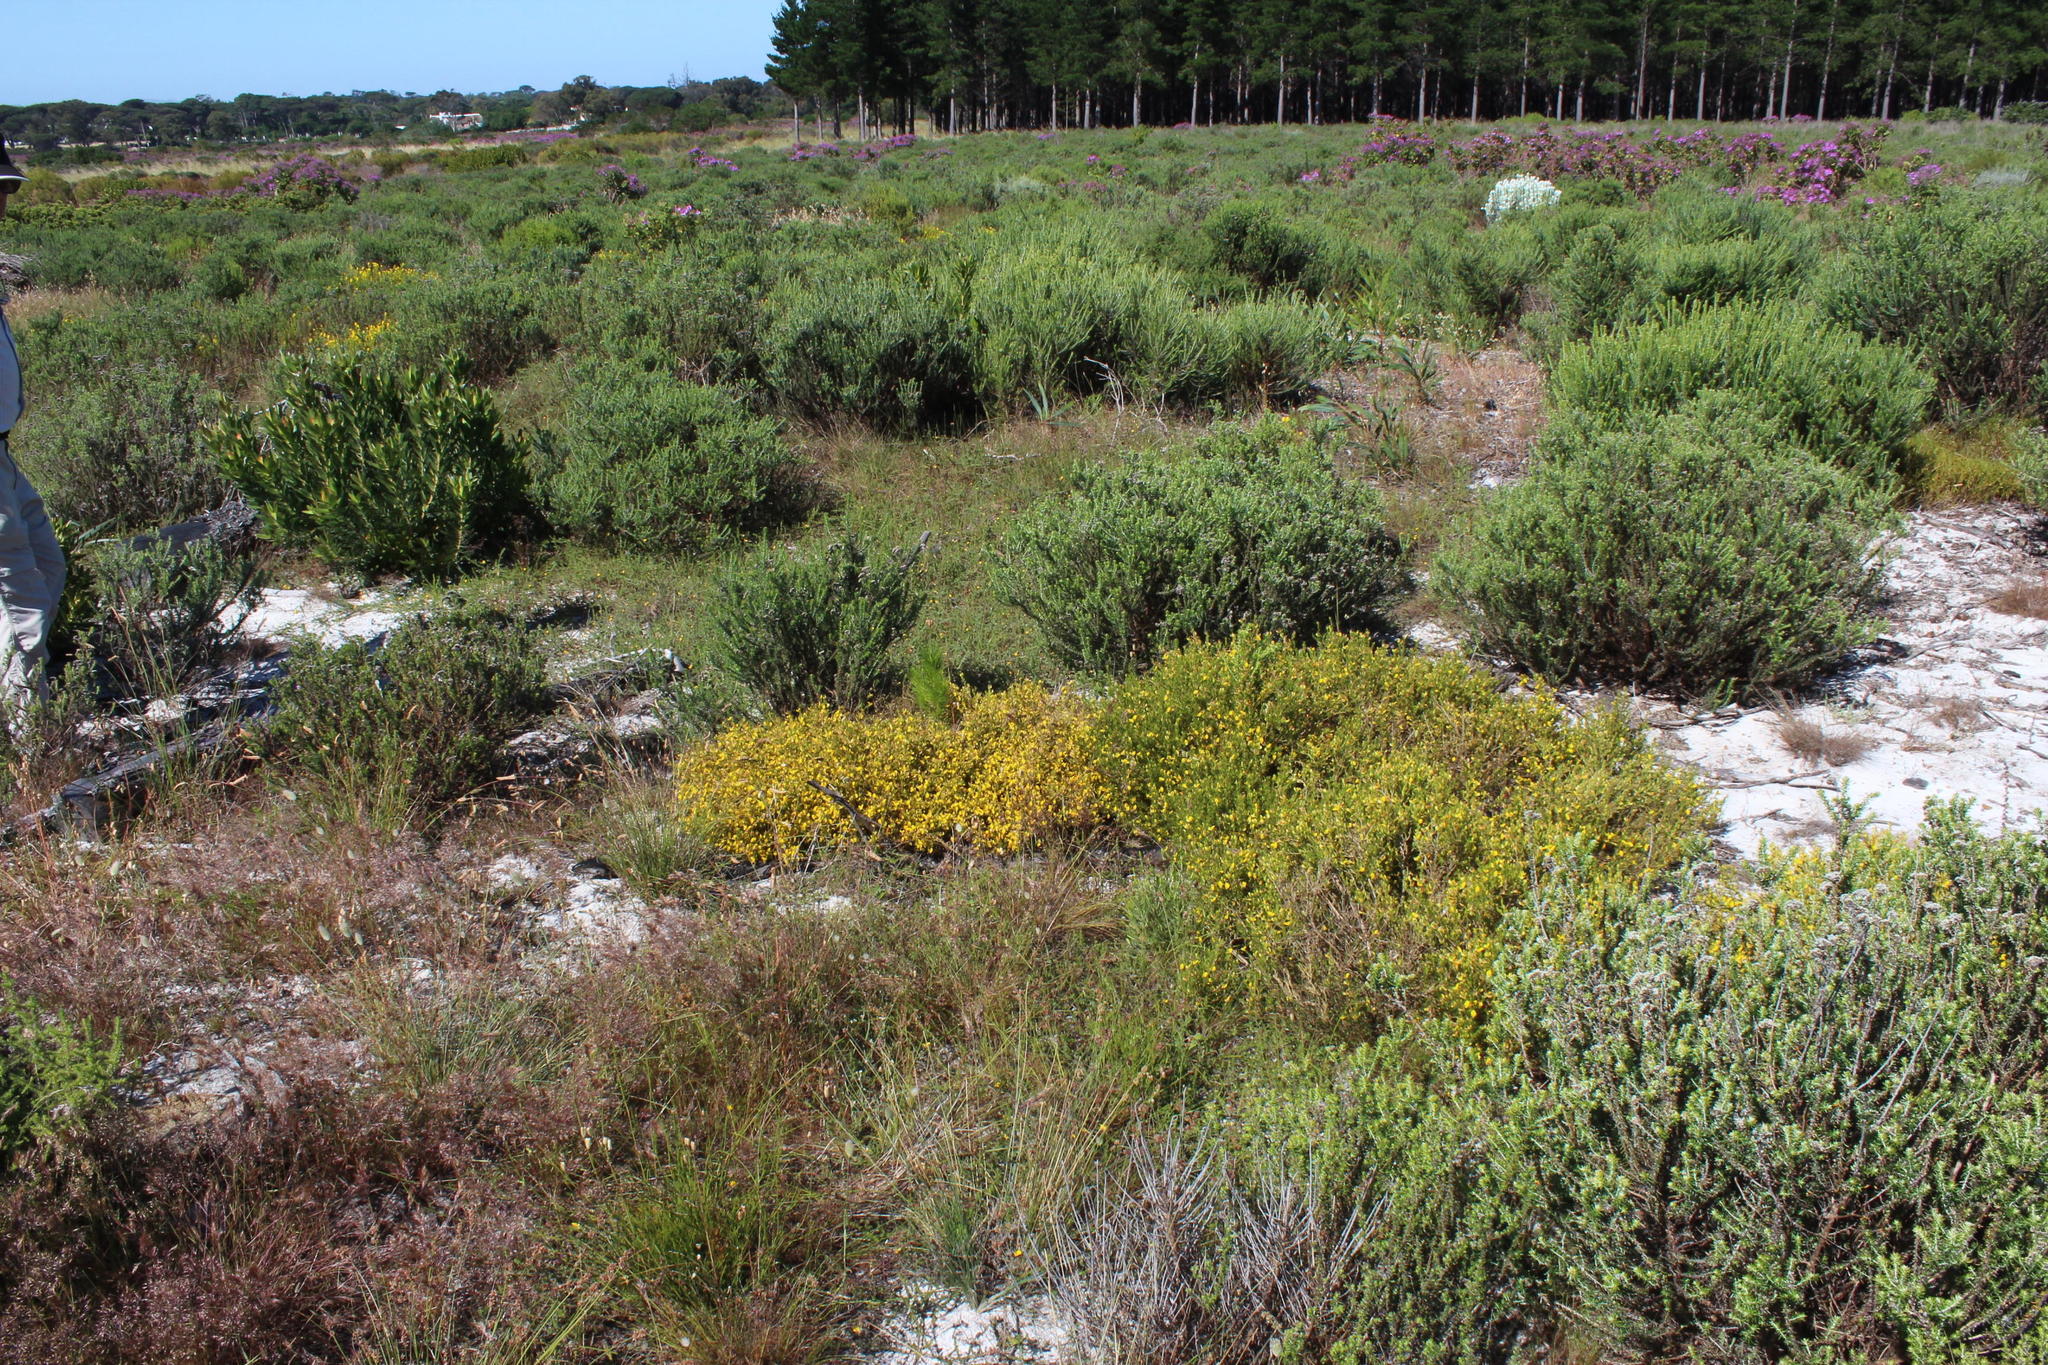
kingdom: Plantae
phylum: Tracheophyta
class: Magnoliopsida
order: Fabales
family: Fabaceae
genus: Aspalathus
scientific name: Aspalathus abietina
